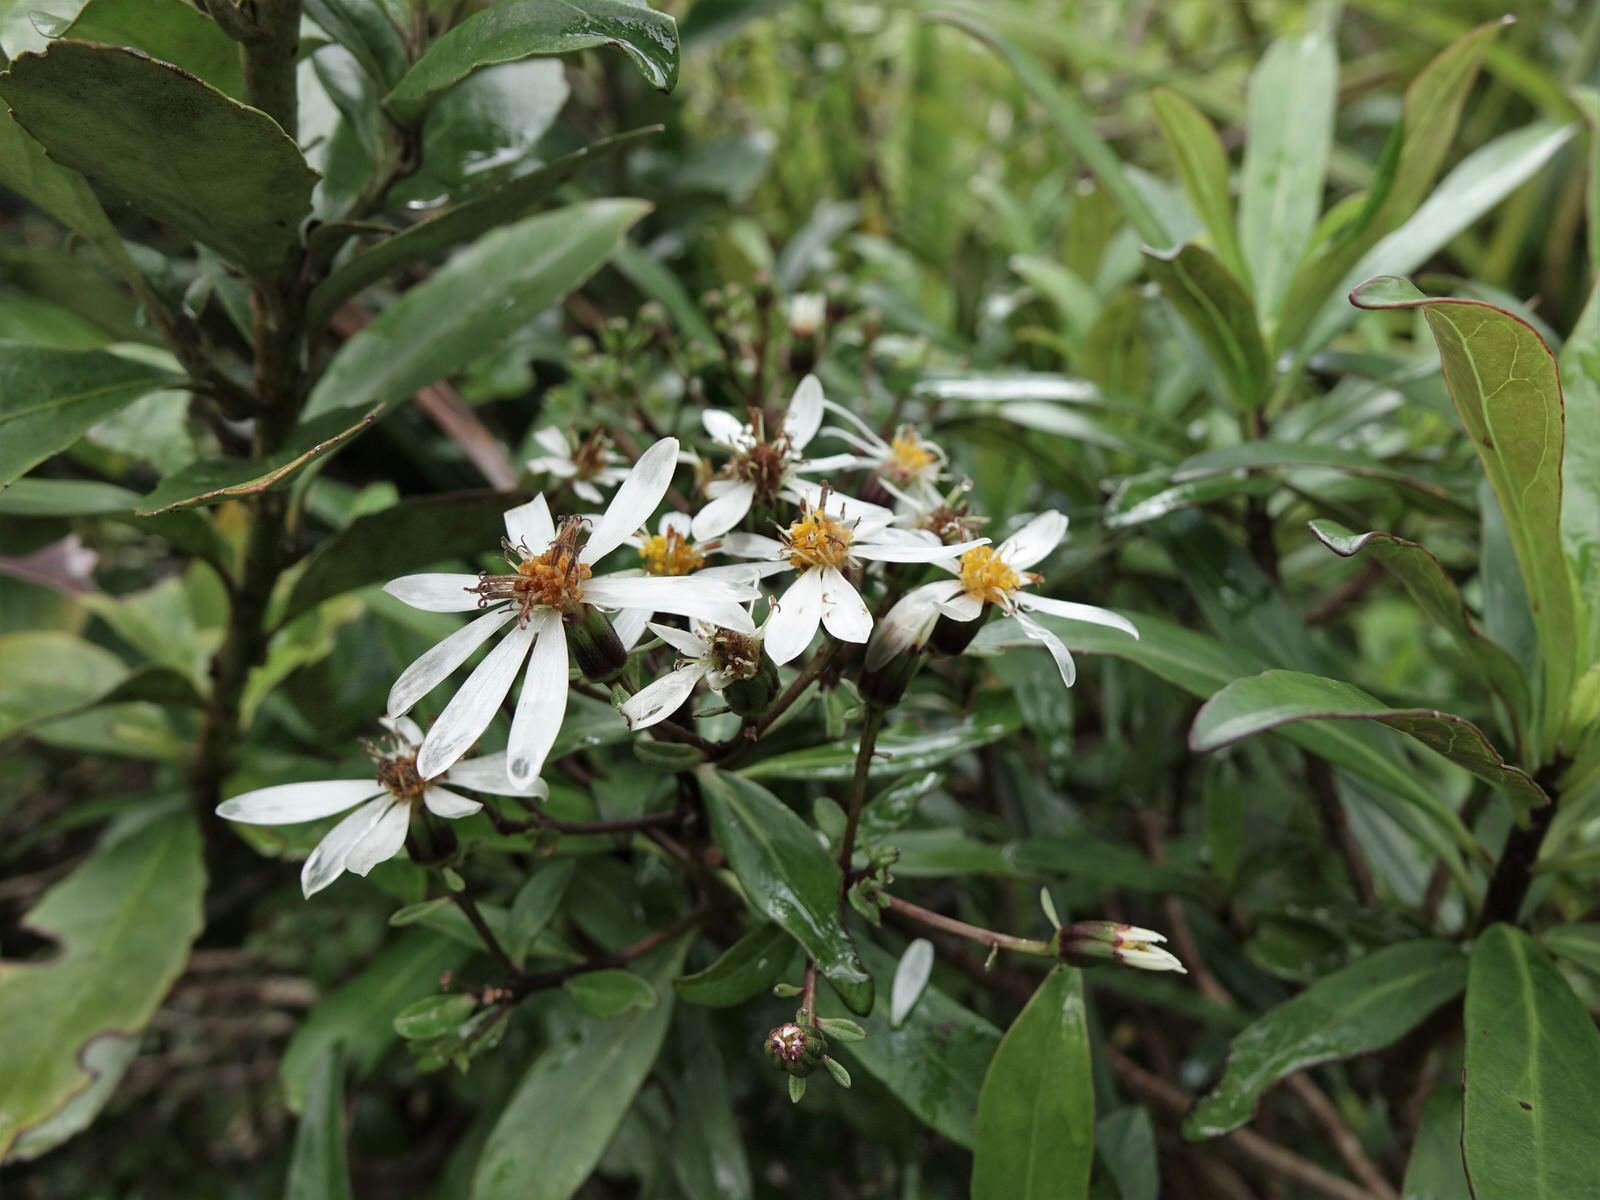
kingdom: Plantae
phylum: Tracheophyta
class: Magnoliopsida
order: Asterales
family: Asteraceae
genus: Brachyglottis
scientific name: Brachyglottis kirkii
